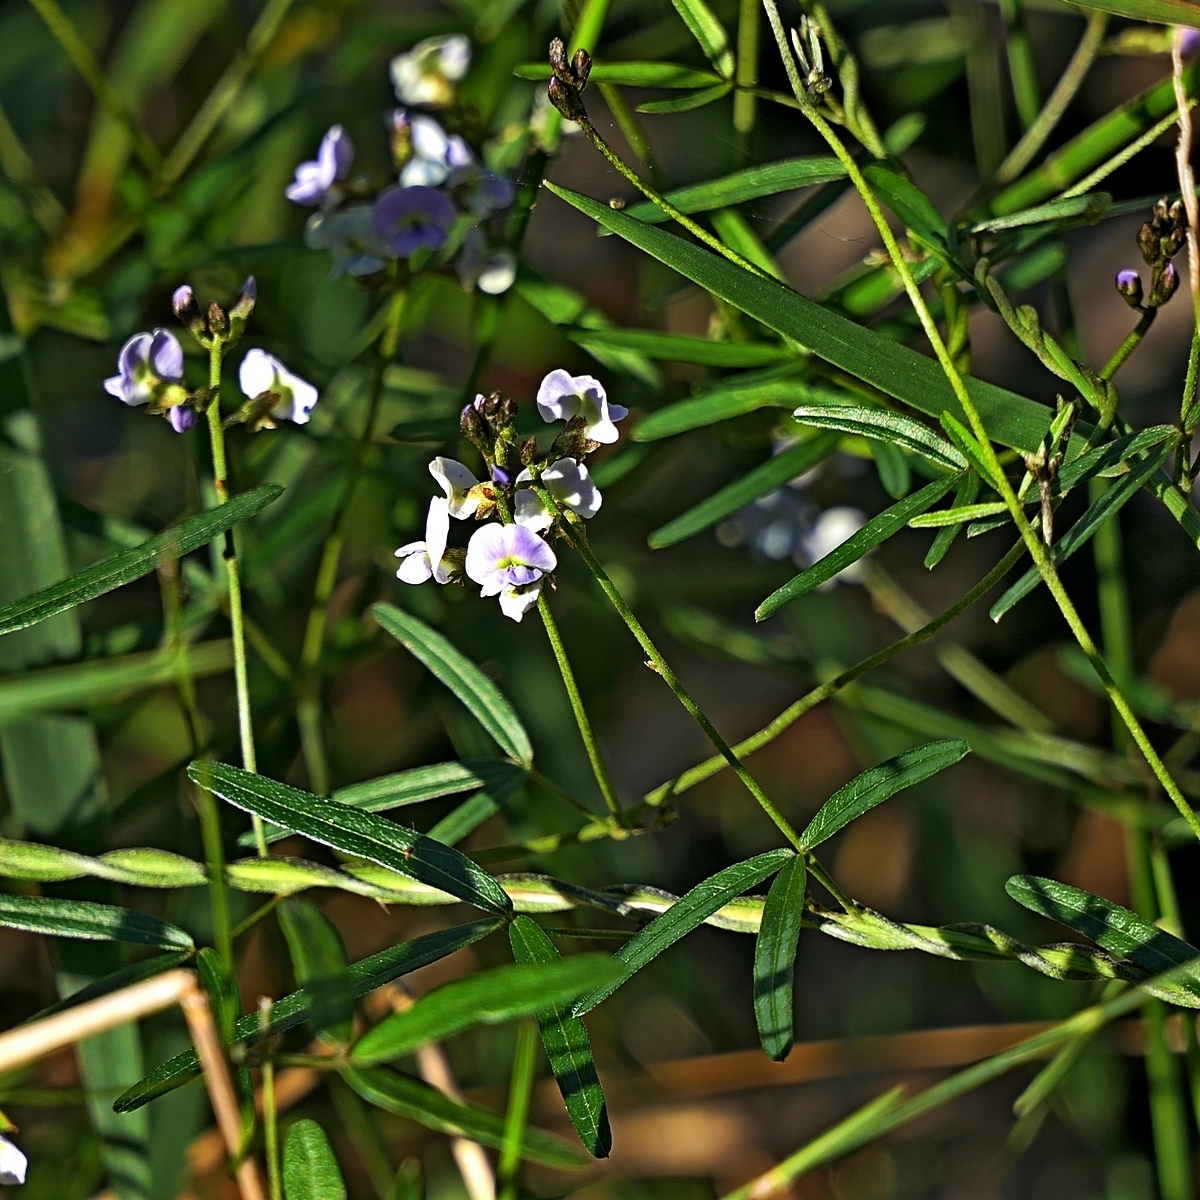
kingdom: Plantae
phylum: Tracheophyta
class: Magnoliopsida
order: Fabales
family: Fabaceae
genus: Glycine
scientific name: Glycine clandestina
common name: Twining glycine
